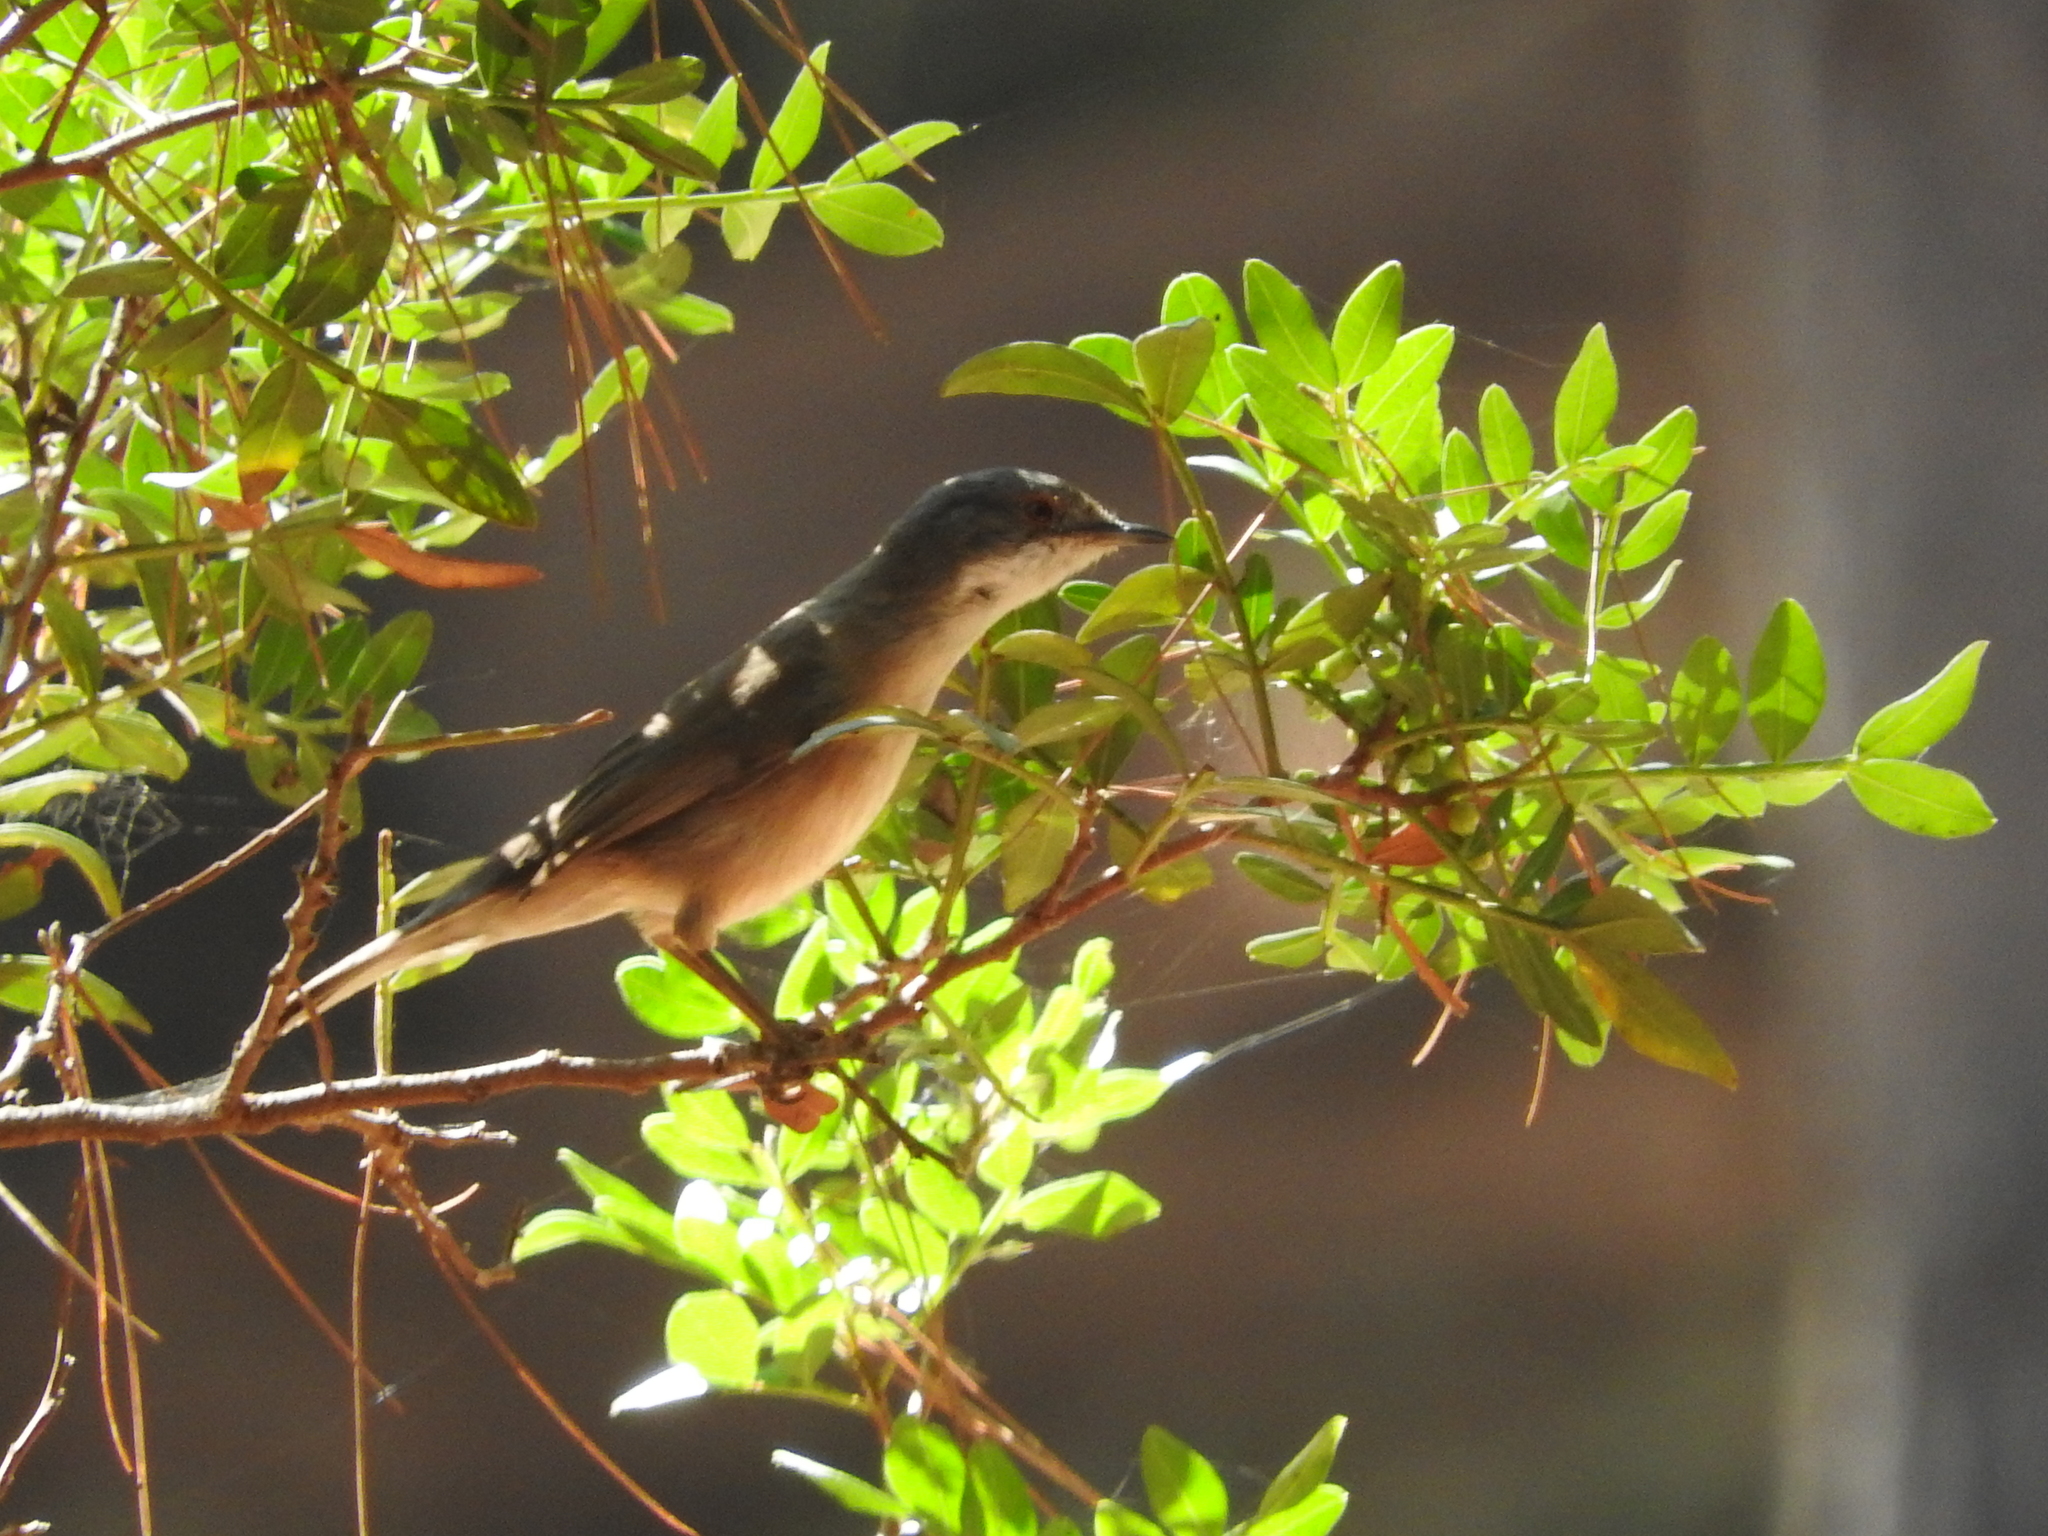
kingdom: Animalia
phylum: Chordata
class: Aves
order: Passeriformes
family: Sylviidae
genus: Curruca
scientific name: Curruca melanocephala
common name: Sardinian warbler
